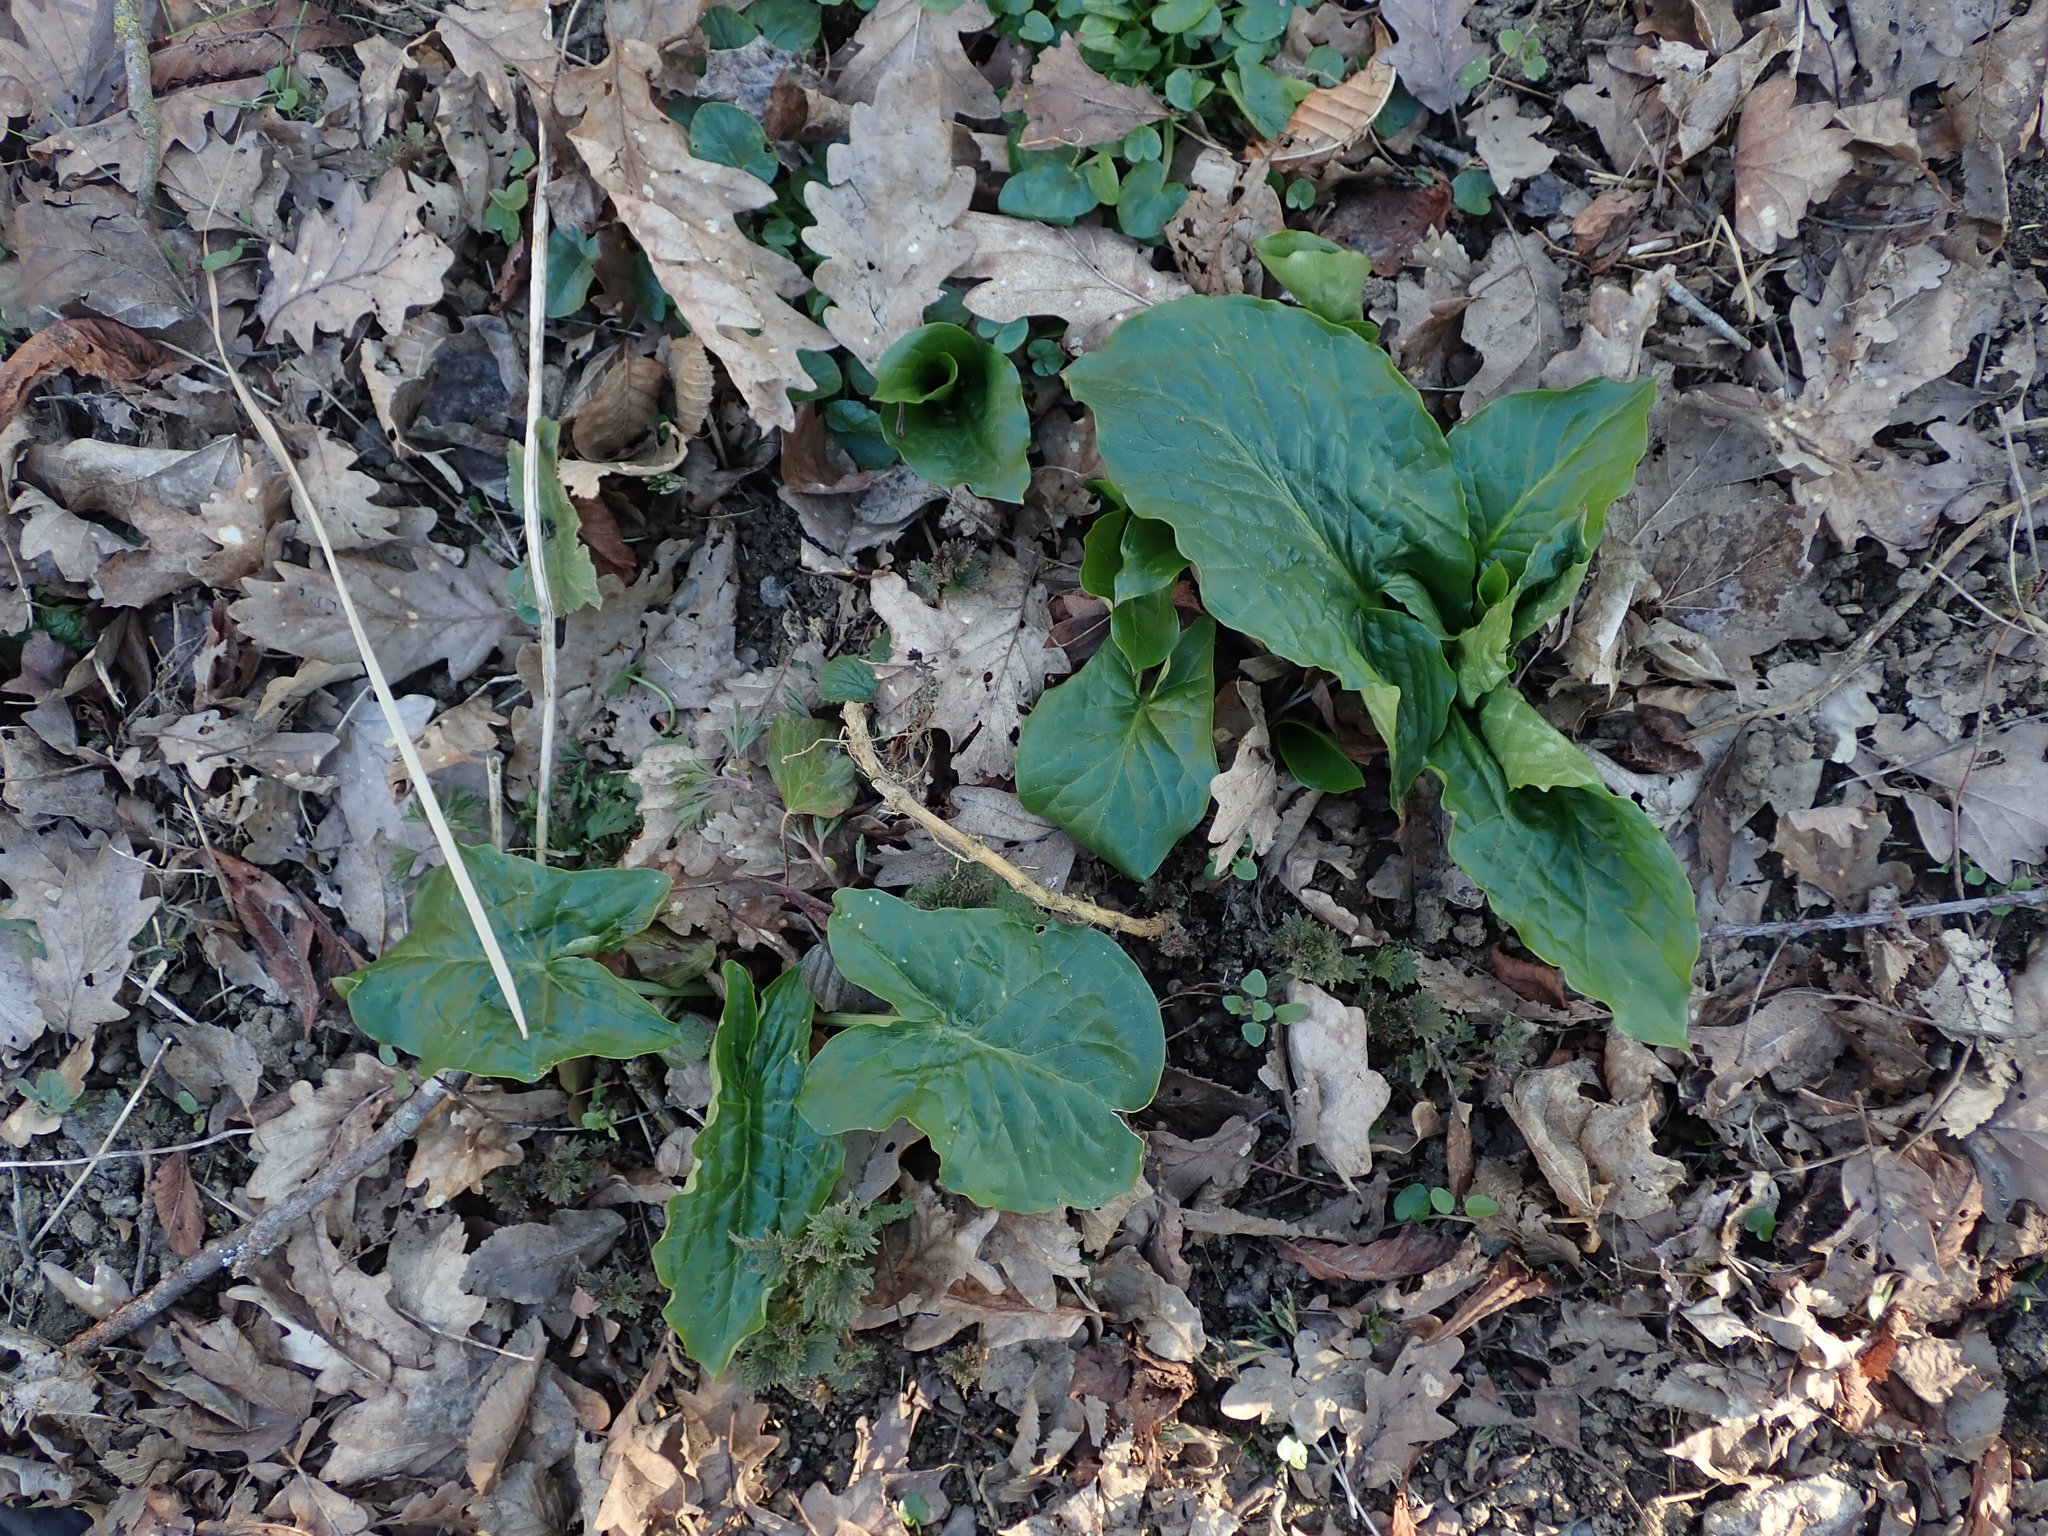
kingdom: Plantae
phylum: Tracheophyta
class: Liliopsida
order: Alismatales
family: Araceae
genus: Arum
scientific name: Arum maculatum
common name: Lords-and-ladies
